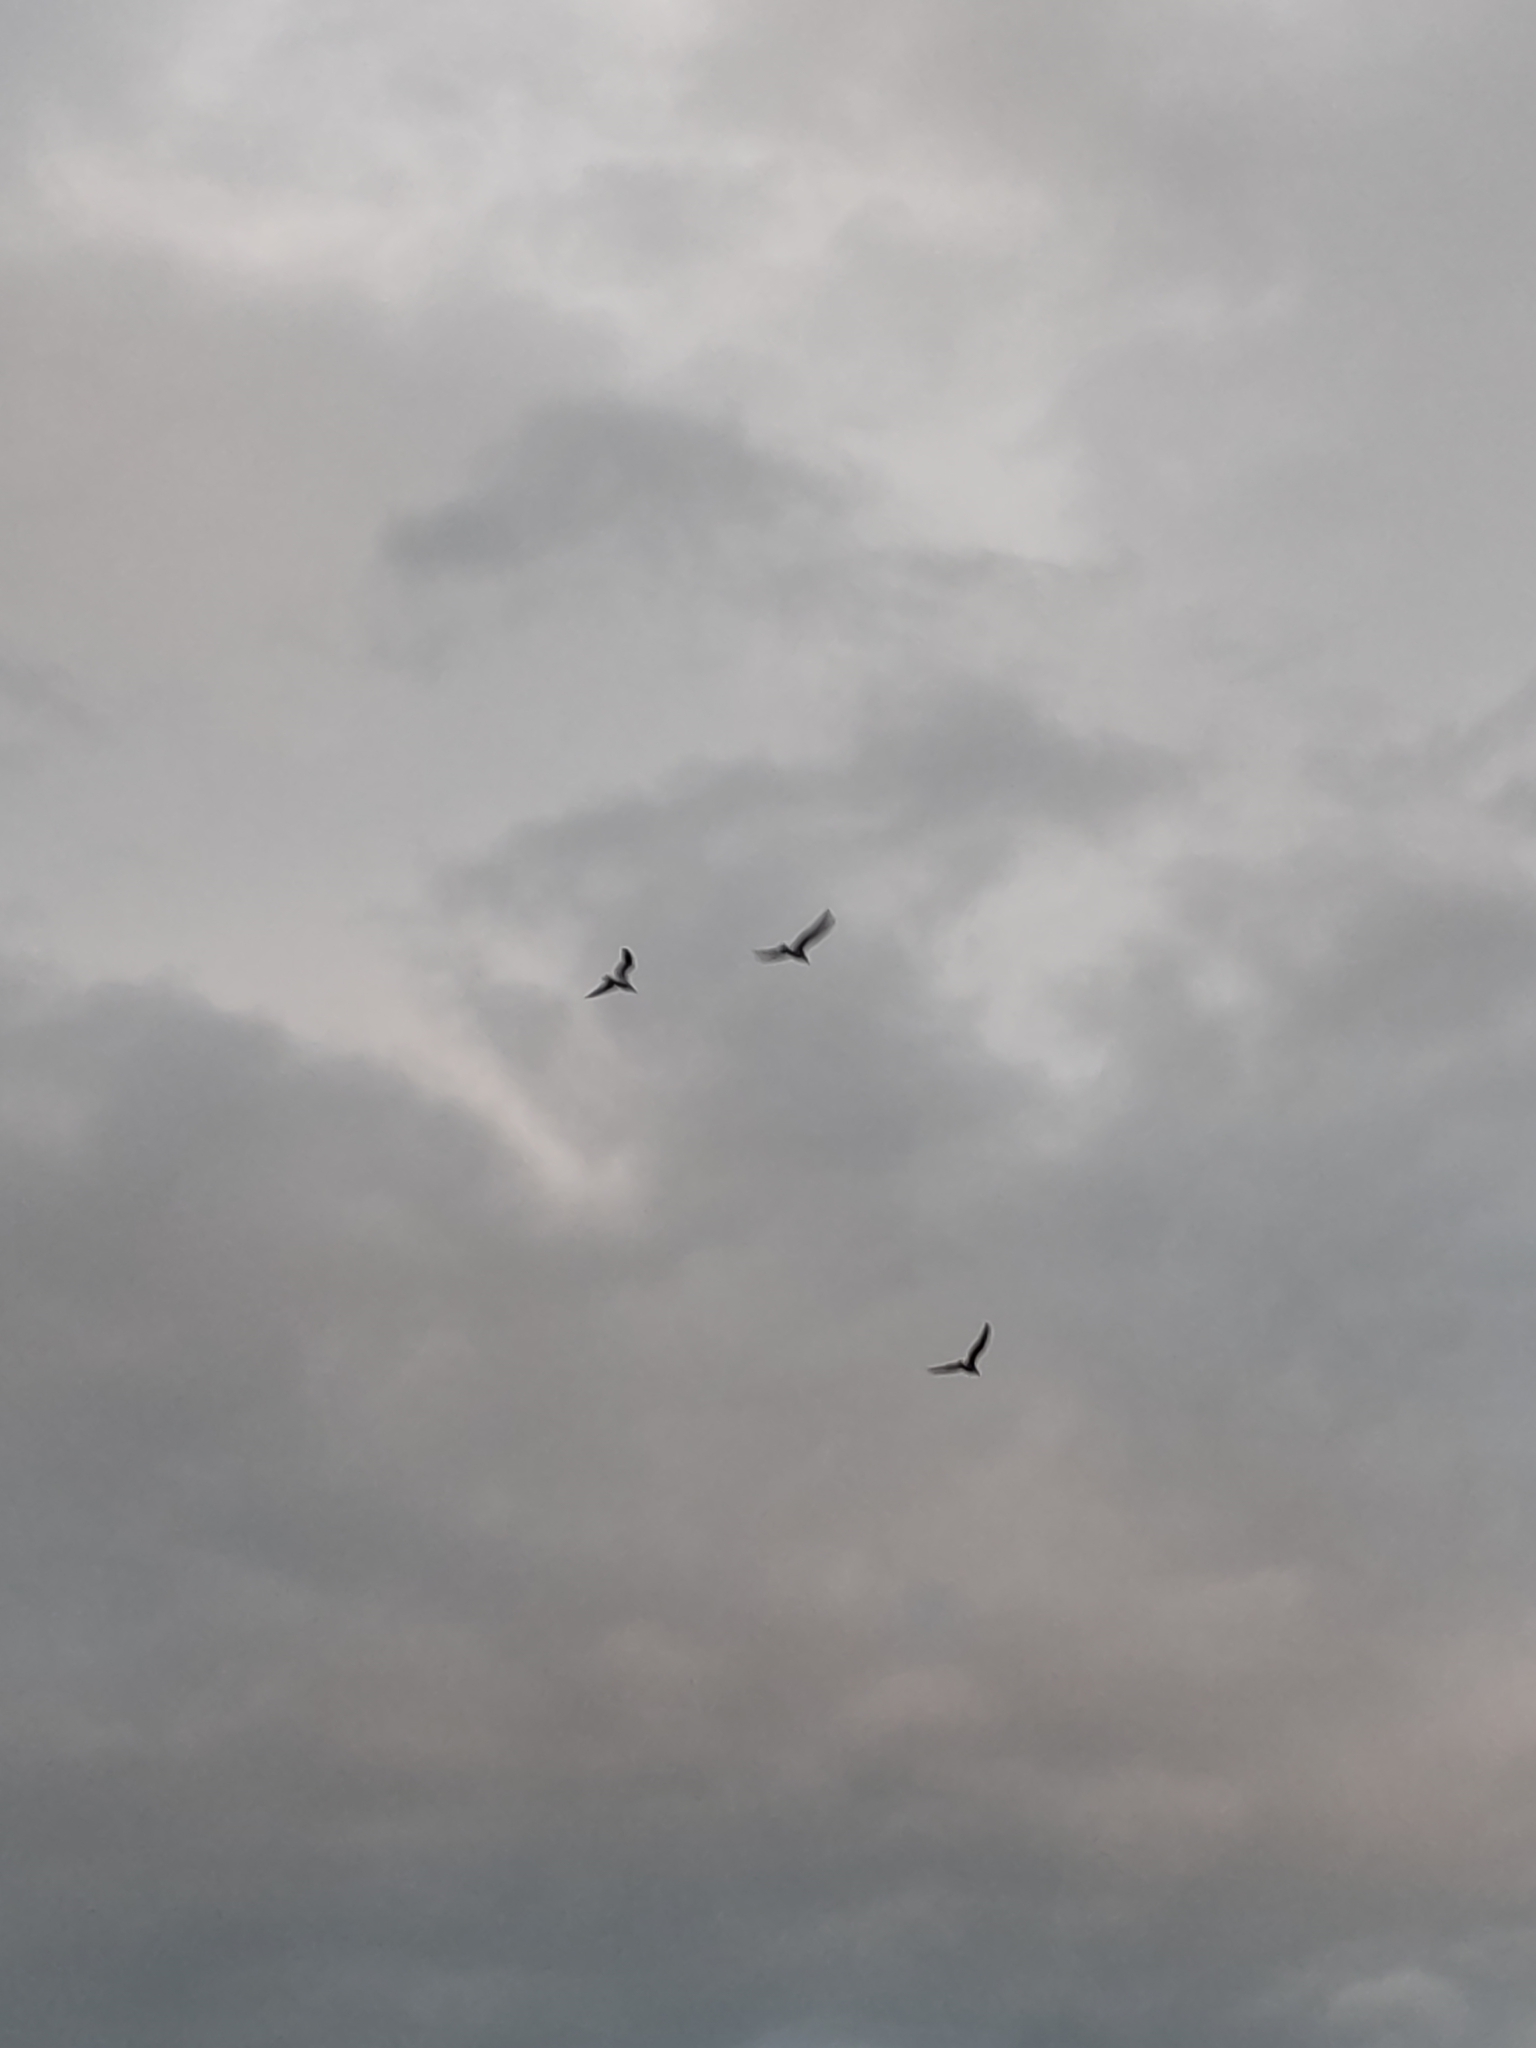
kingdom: Animalia
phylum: Chordata
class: Aves
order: Charadriiformes
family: Laridae
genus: Larus
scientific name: Larus dominicanus
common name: Kelp gull
